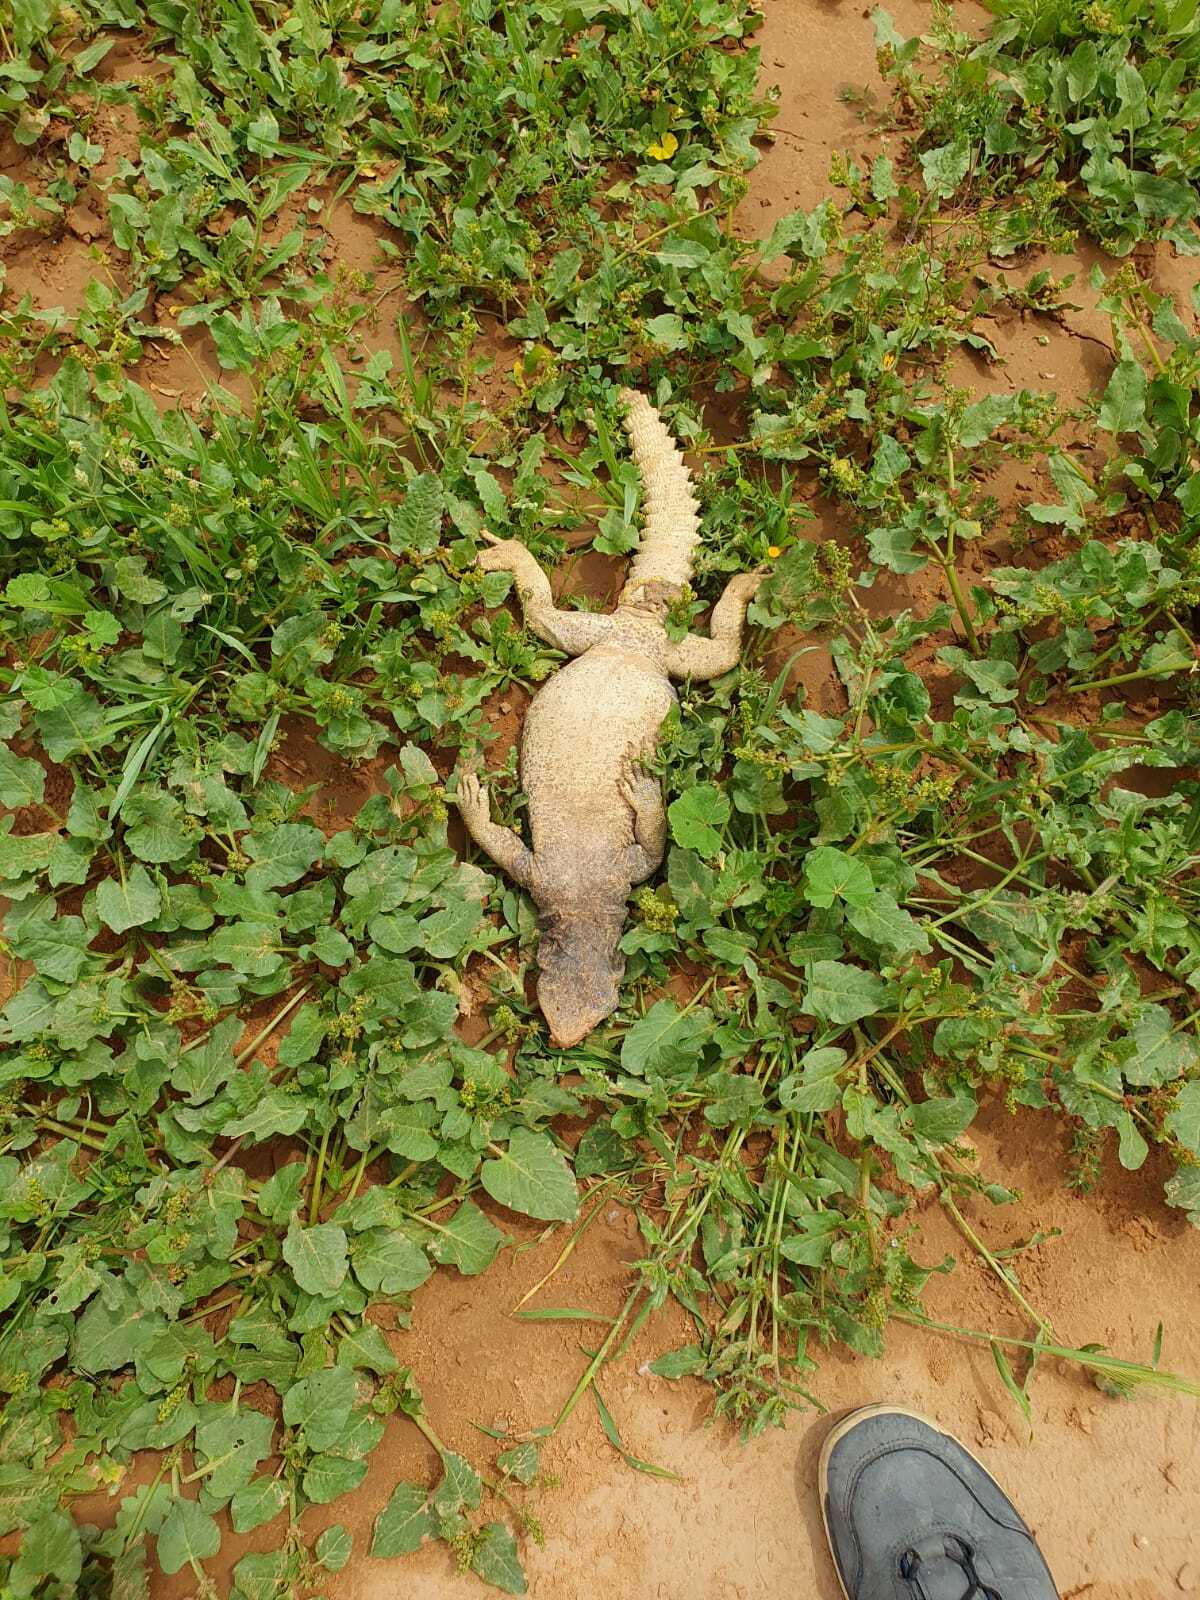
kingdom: Animalia
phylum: Chordata
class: Squamata
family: Agamidae
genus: Uromastyx
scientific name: Uromastyx aegyptia
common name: Egyptian mastigure
